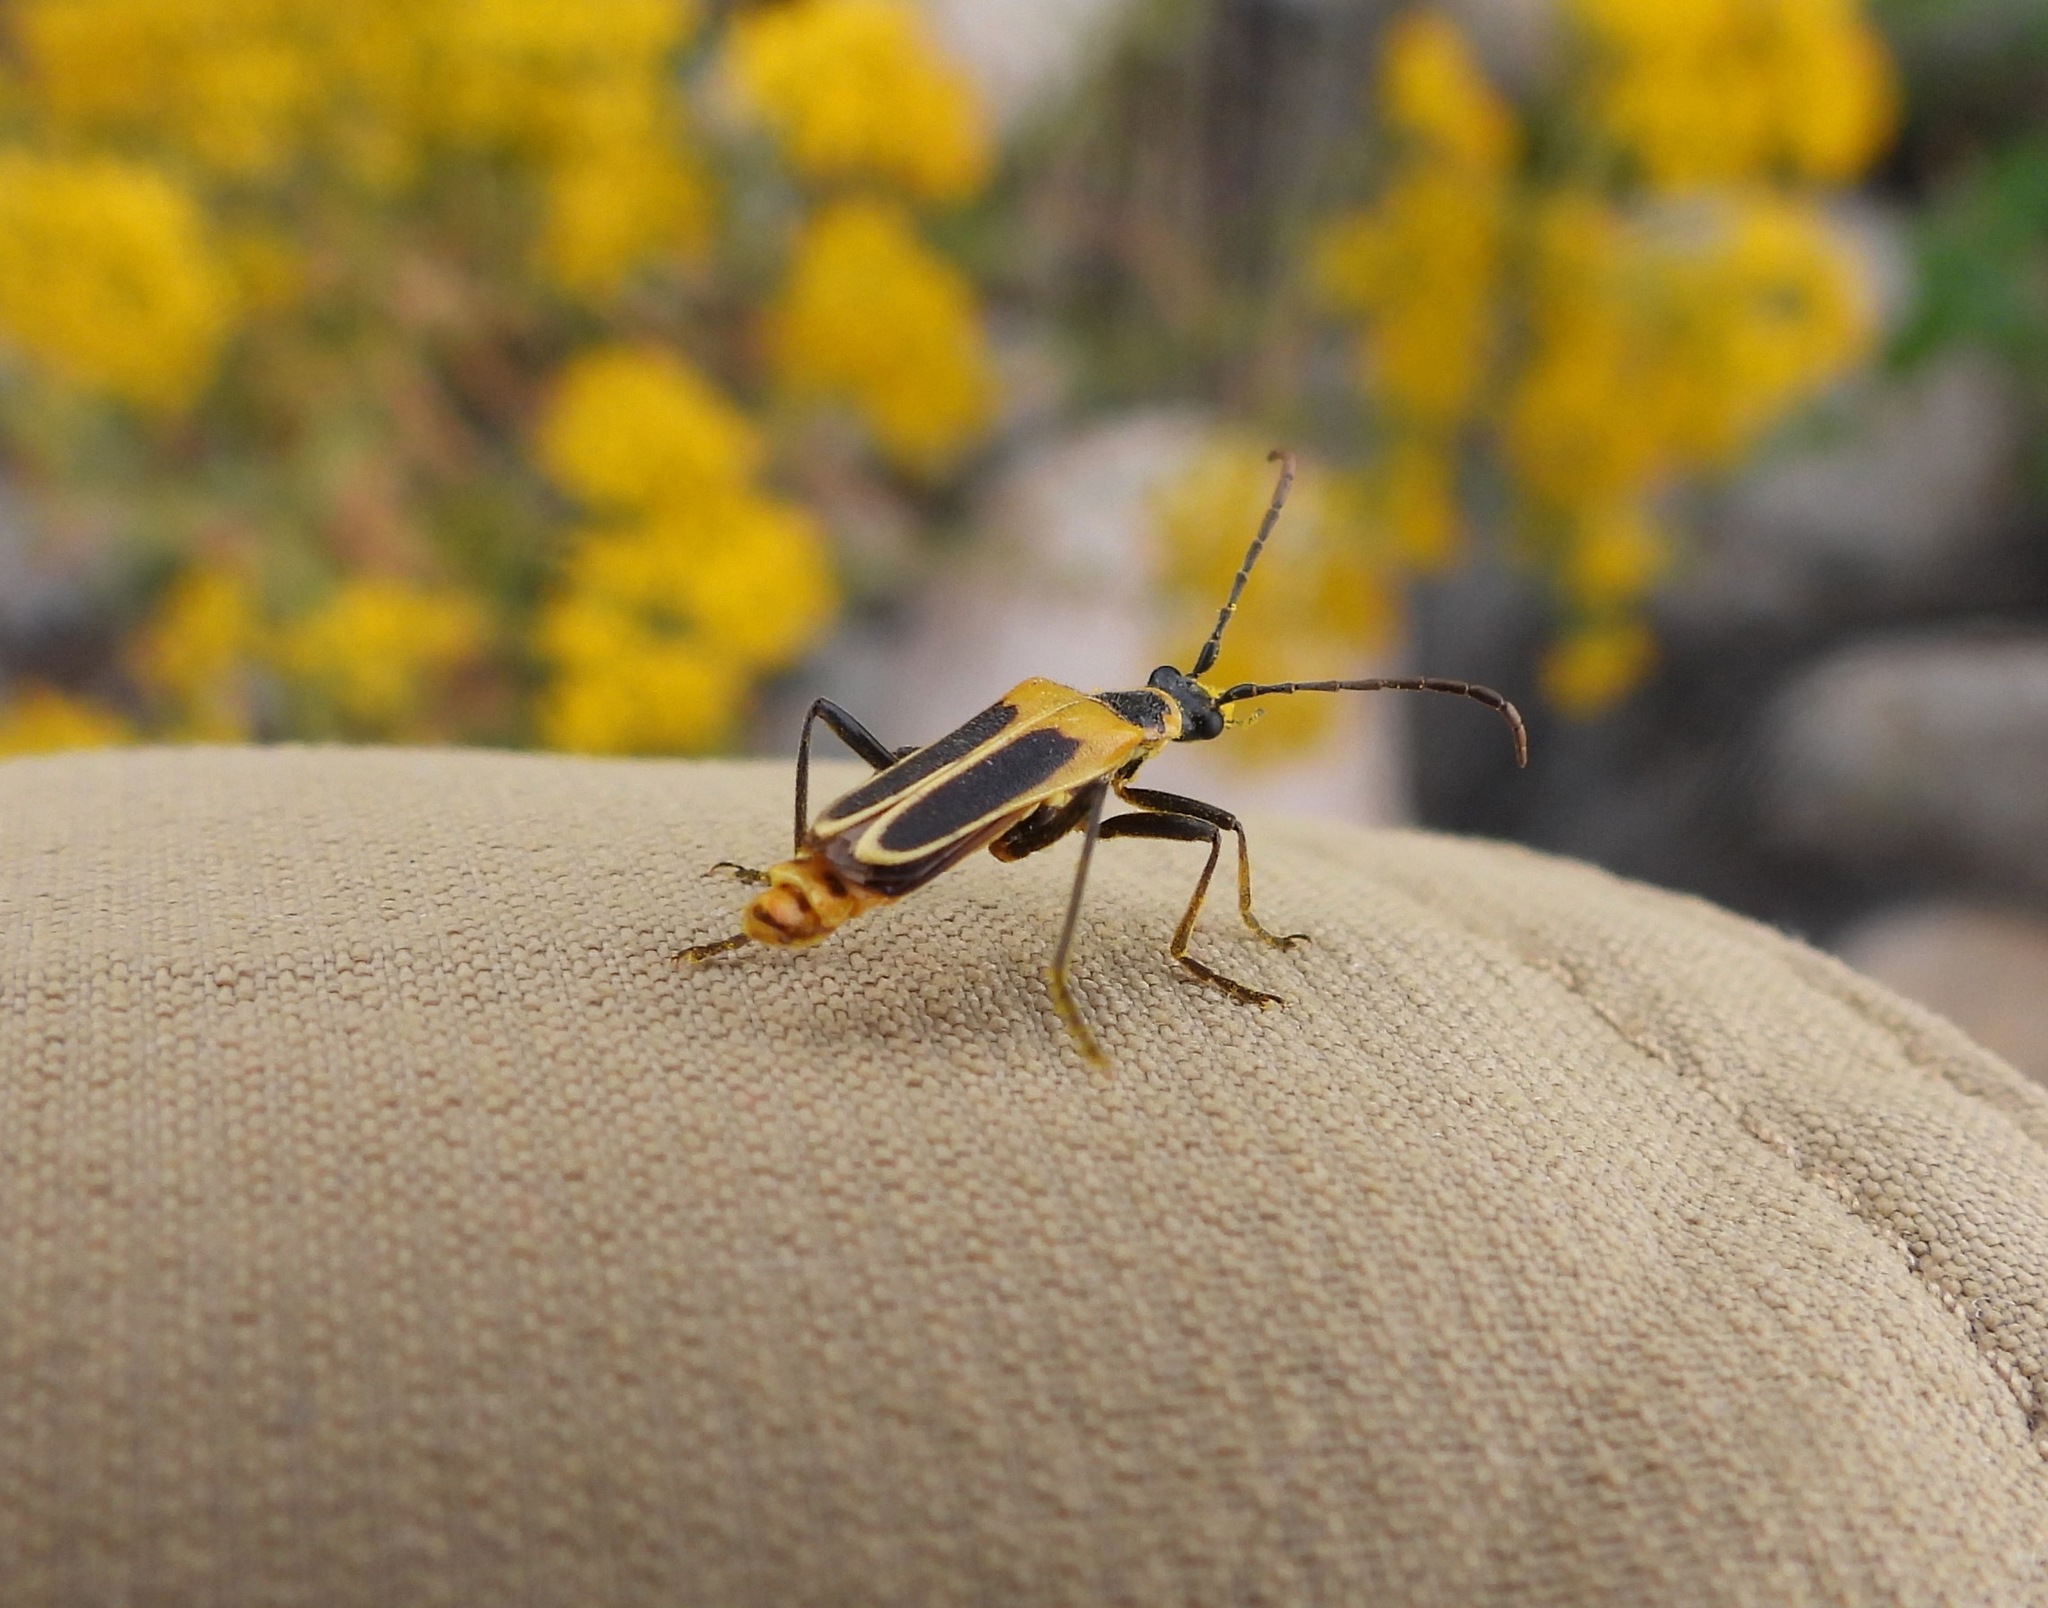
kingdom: Animalia
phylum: Arthropoda
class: Insecta
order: Coleoptera
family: Cantharidae
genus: Chauliognathus
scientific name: Chauliognathus lewisi
